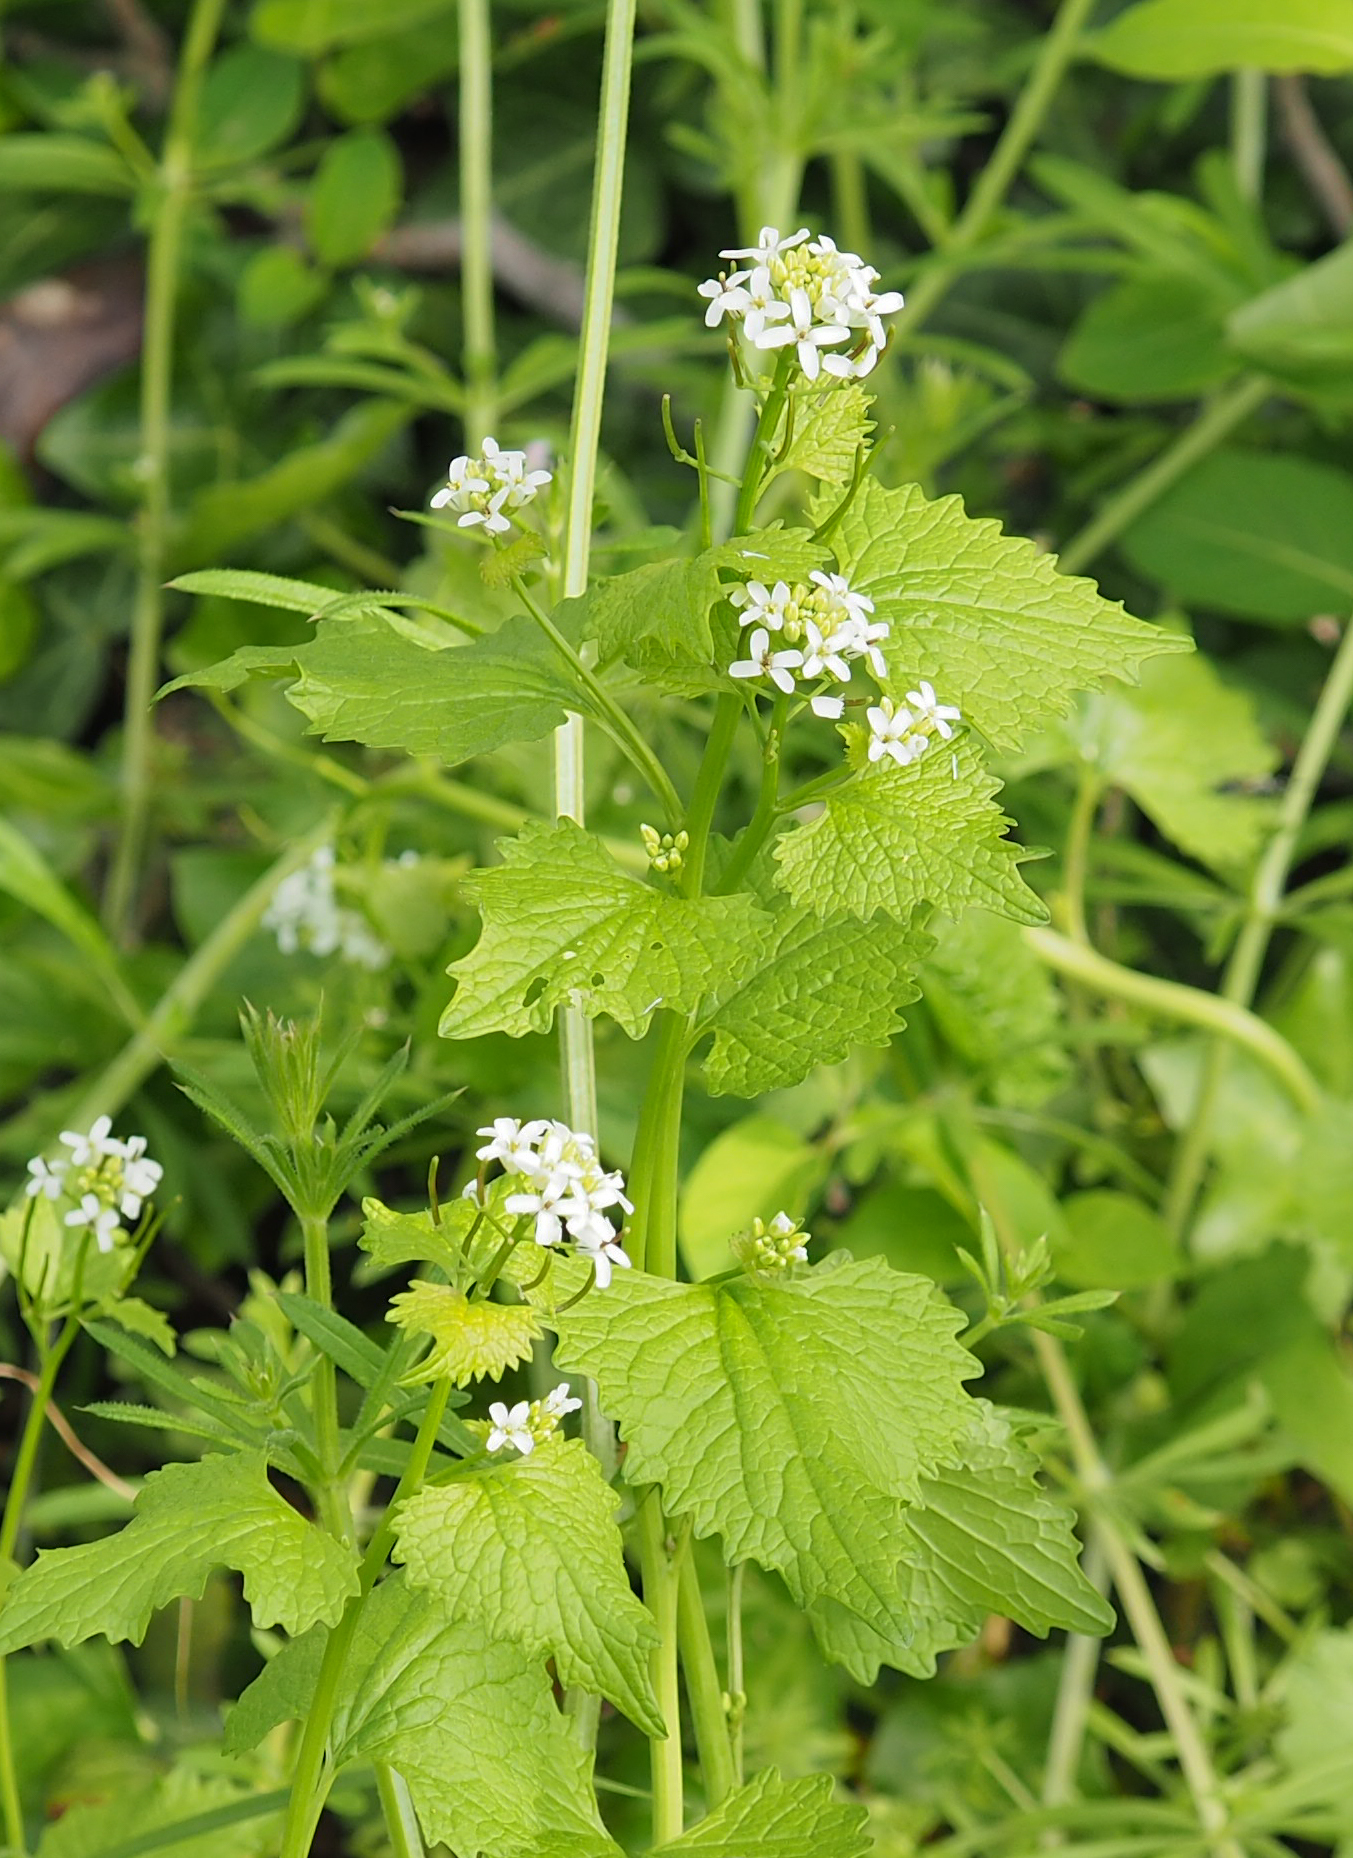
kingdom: Plantae
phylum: Tracheophyta
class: Magnoliopsida
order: Brassicales
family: Brassicaceae
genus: Alliaria
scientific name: Alliaria petiolata
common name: Garlic mustard
